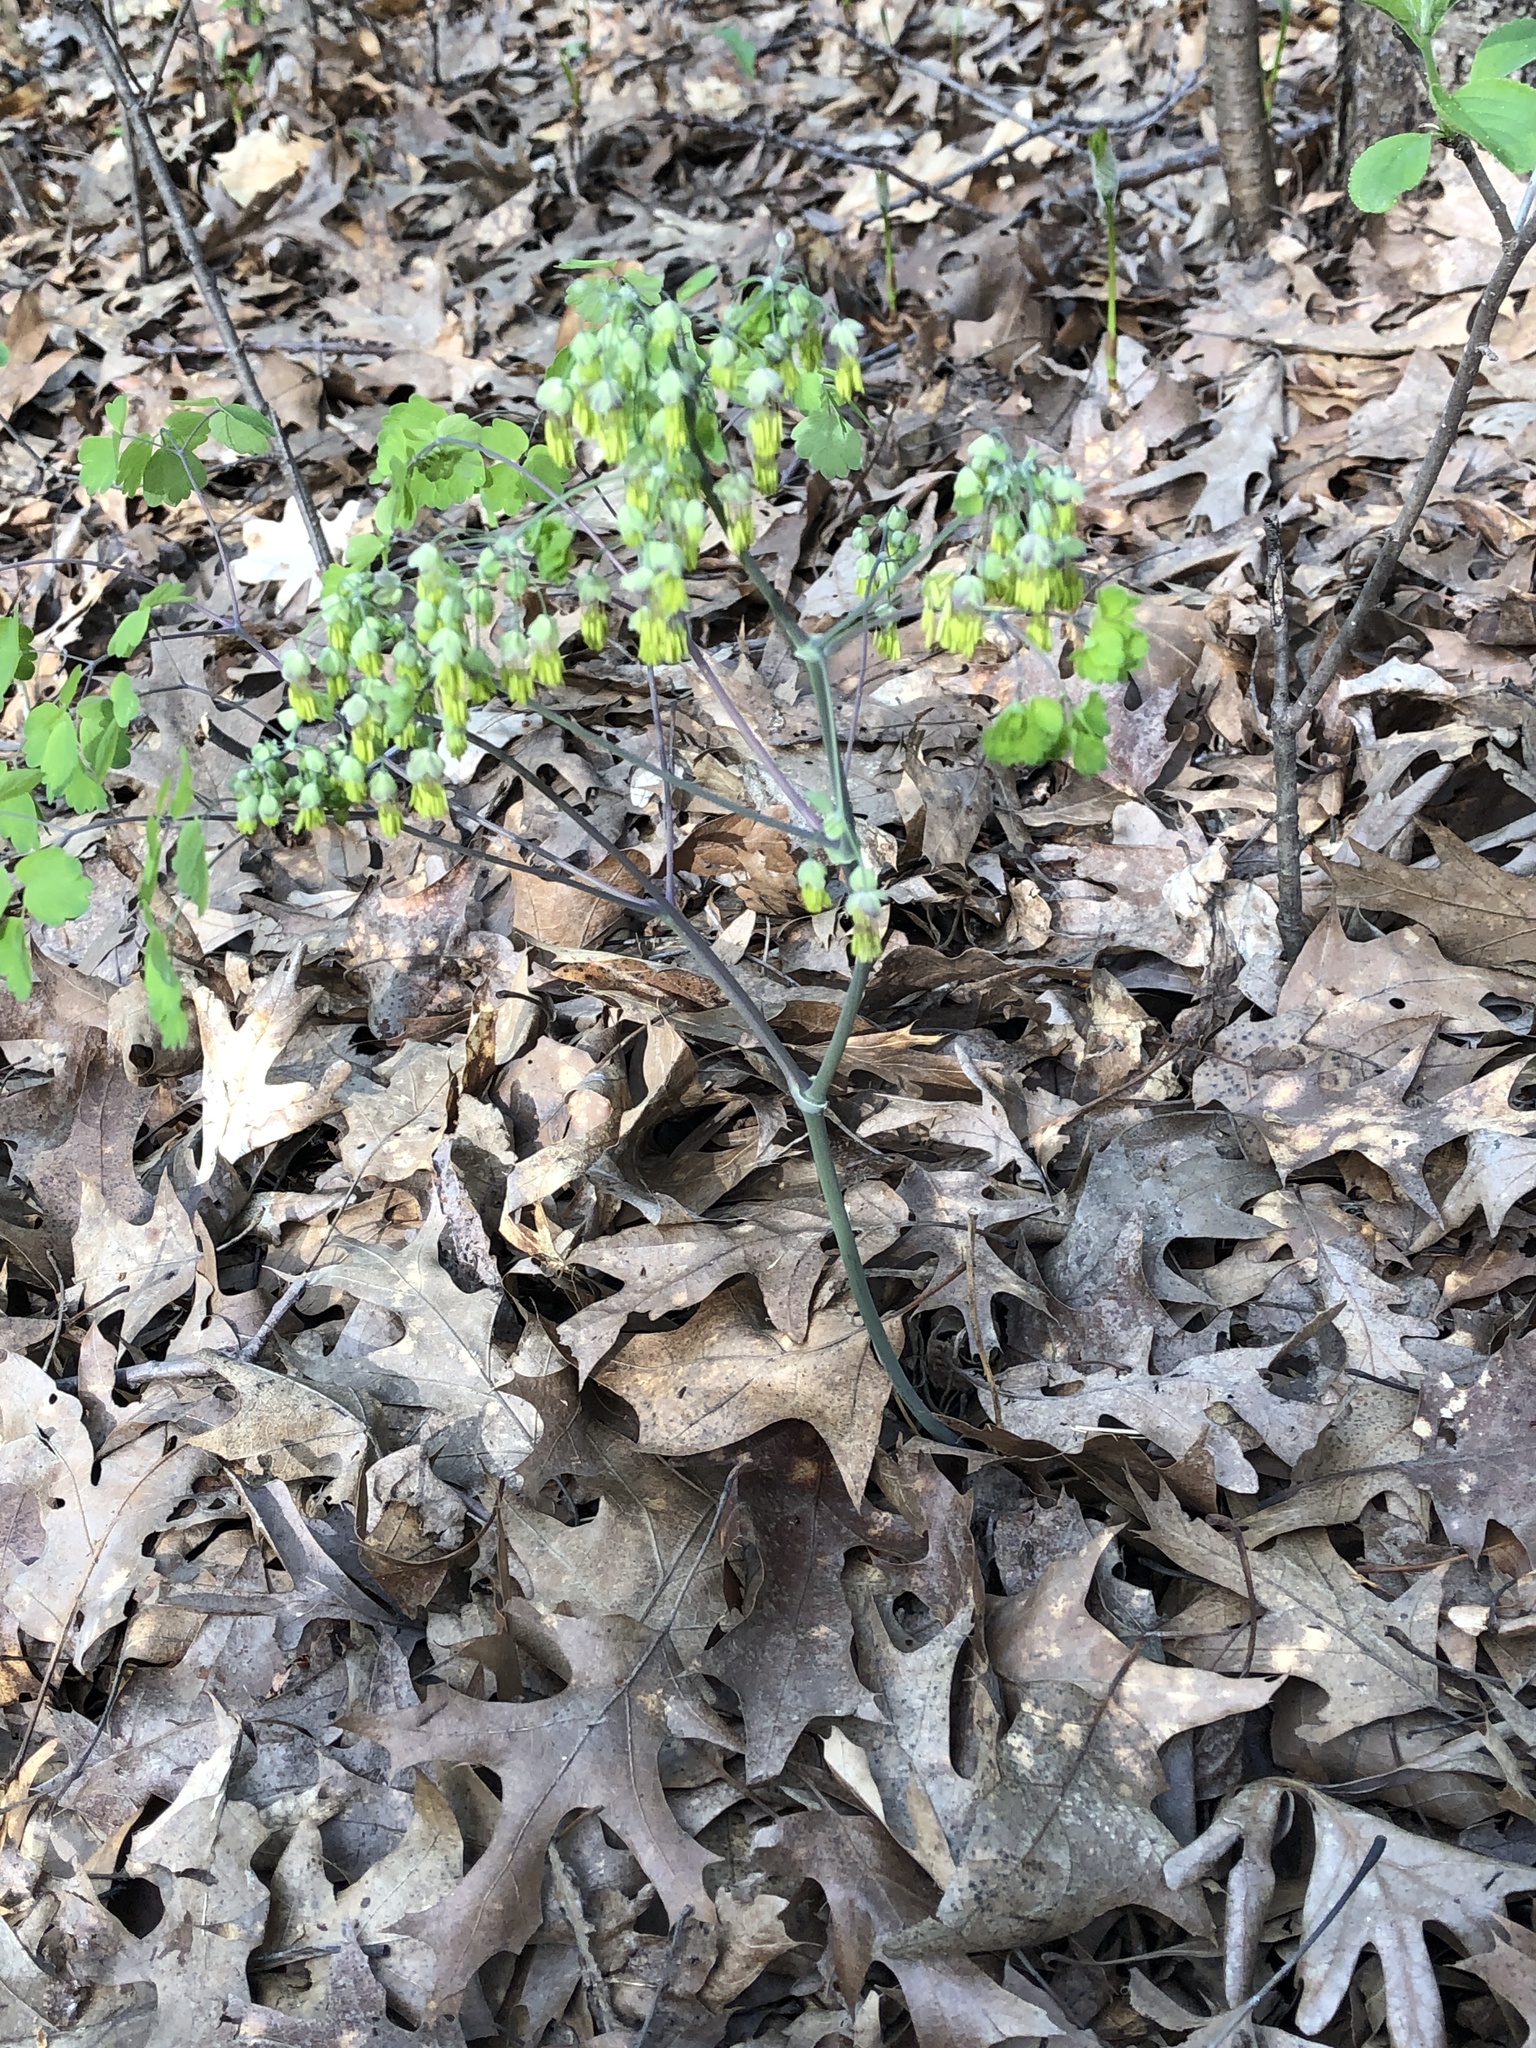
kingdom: Plantae
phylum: Tracheophyta
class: Magnoliopsida
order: Ranunculales
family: Ranunculaceae
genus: Thalictrum
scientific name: Thalictrum dioicum
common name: Early meadow-rue
